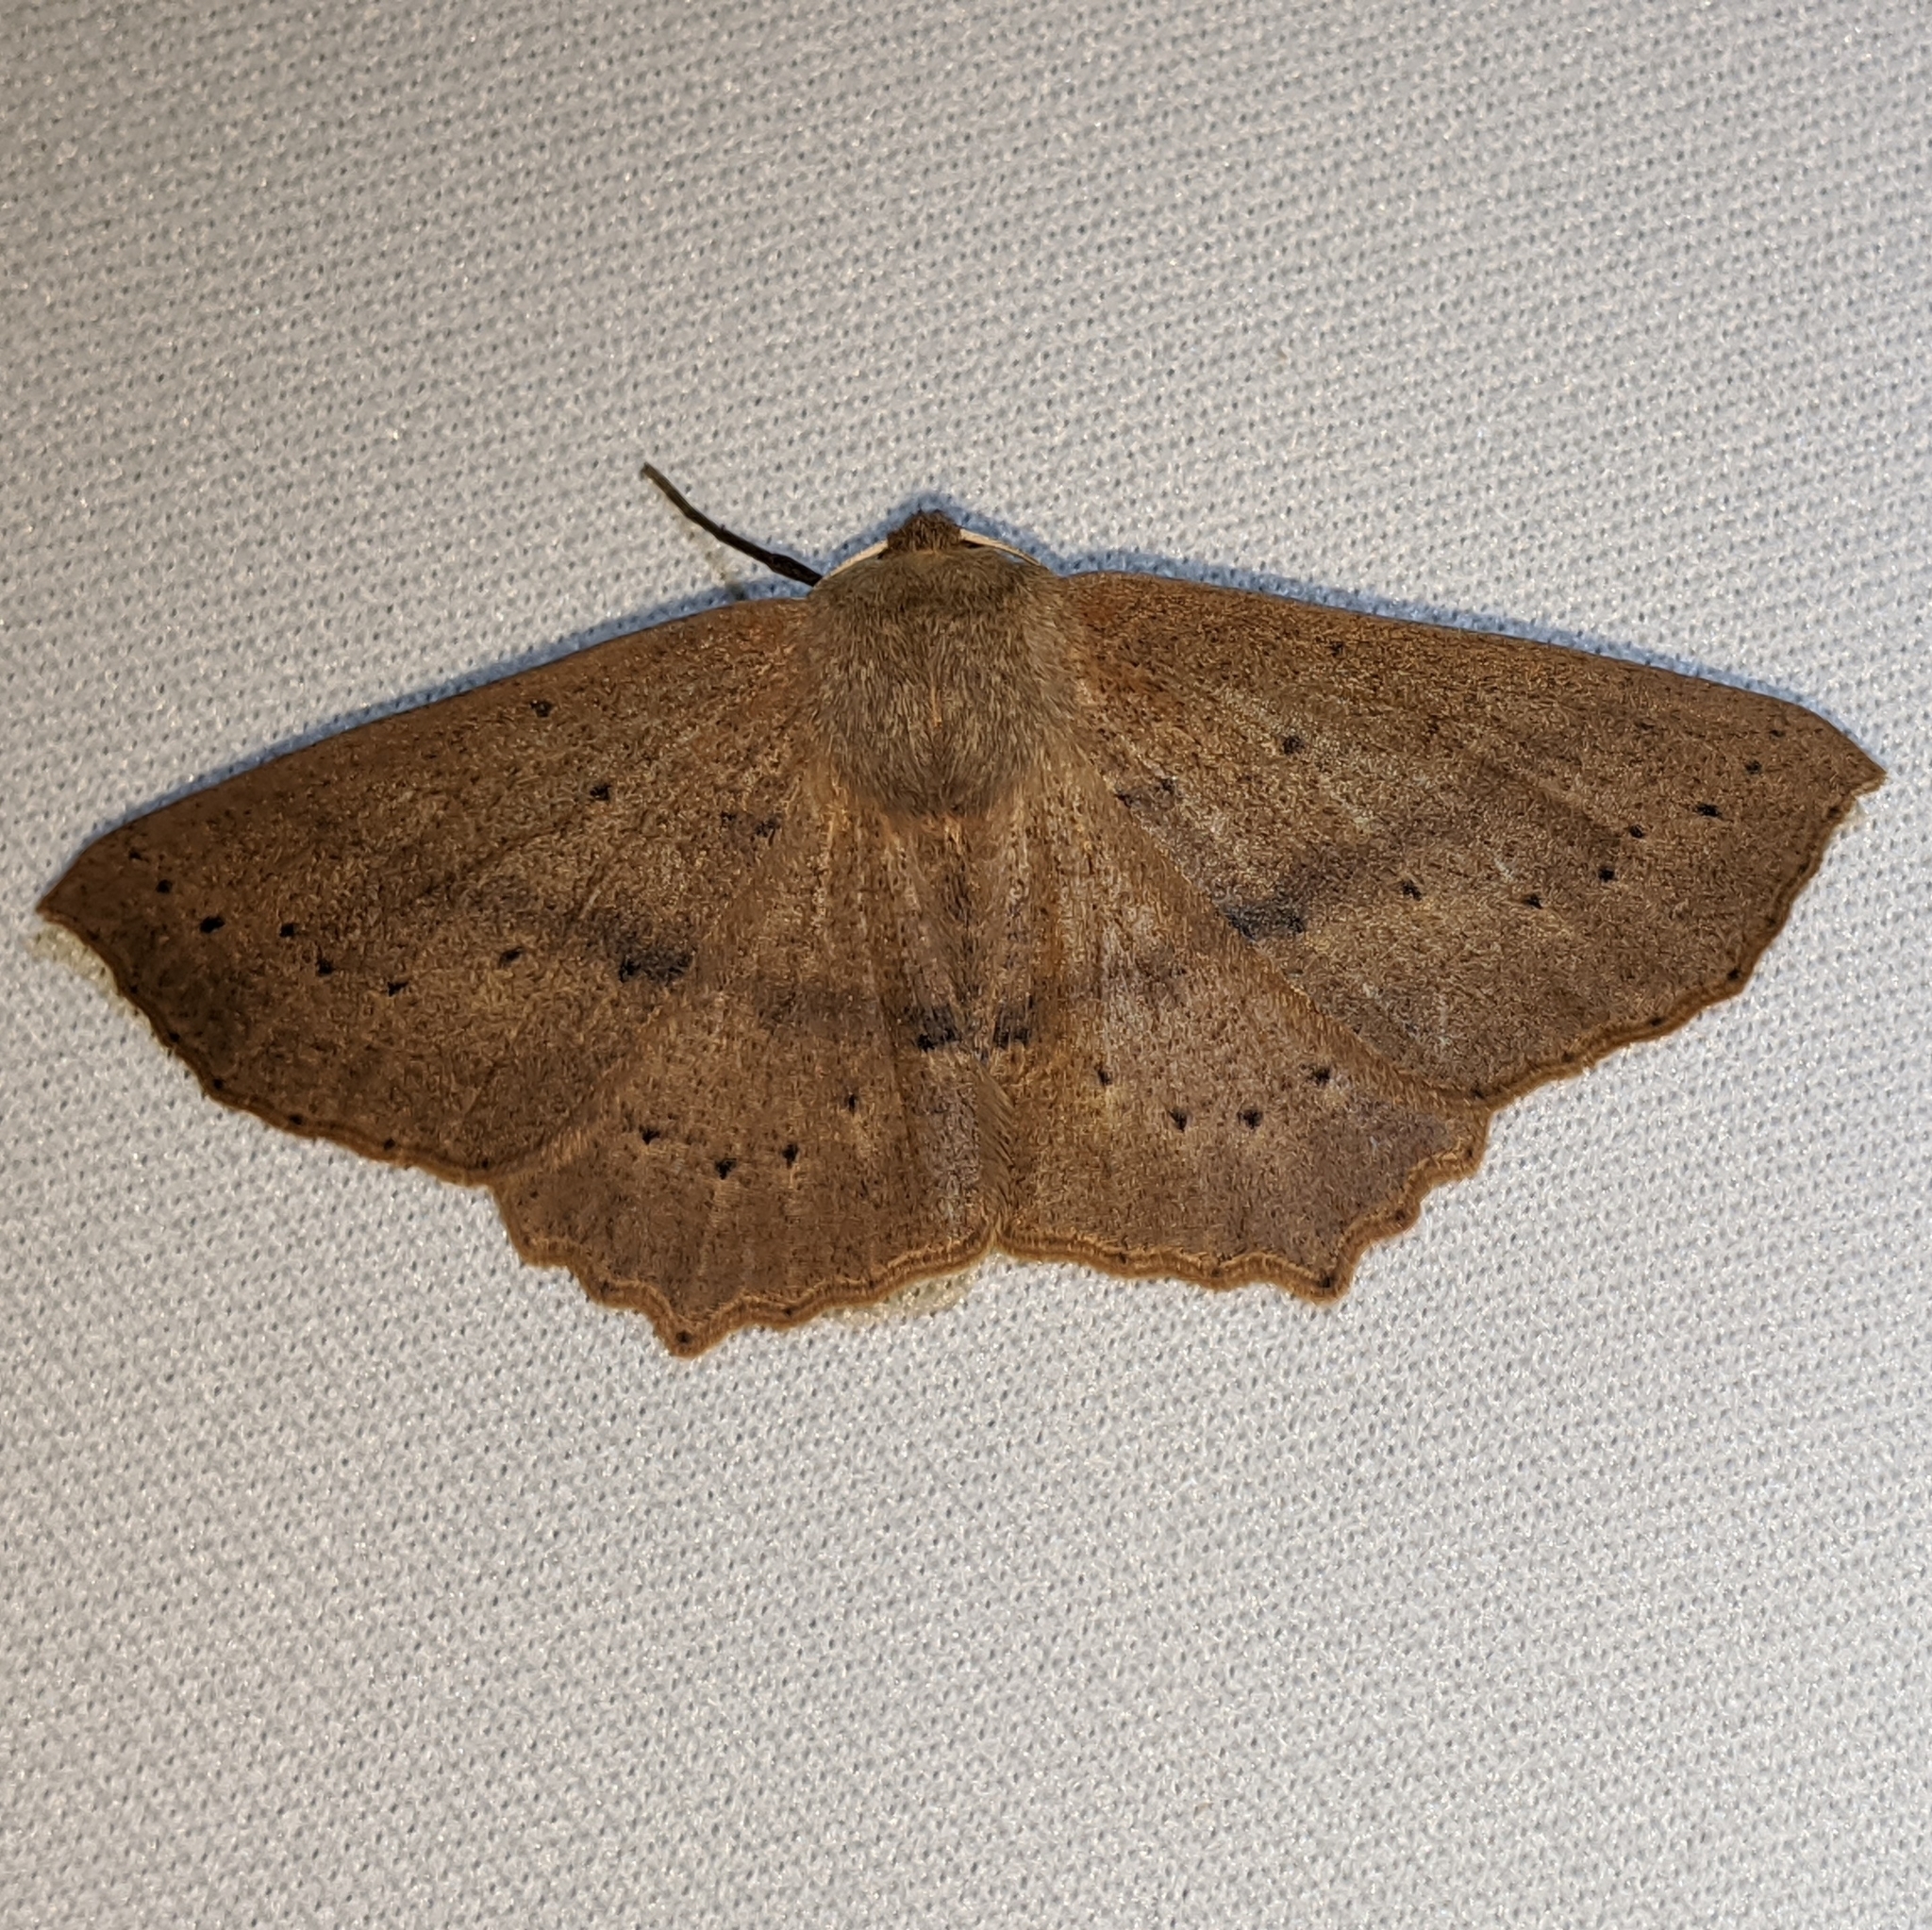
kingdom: Animalia
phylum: Arthropoda
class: Insecta
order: Lepidoptera
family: Geometridae
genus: Sabulodes
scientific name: Sabulodes aegrotata
